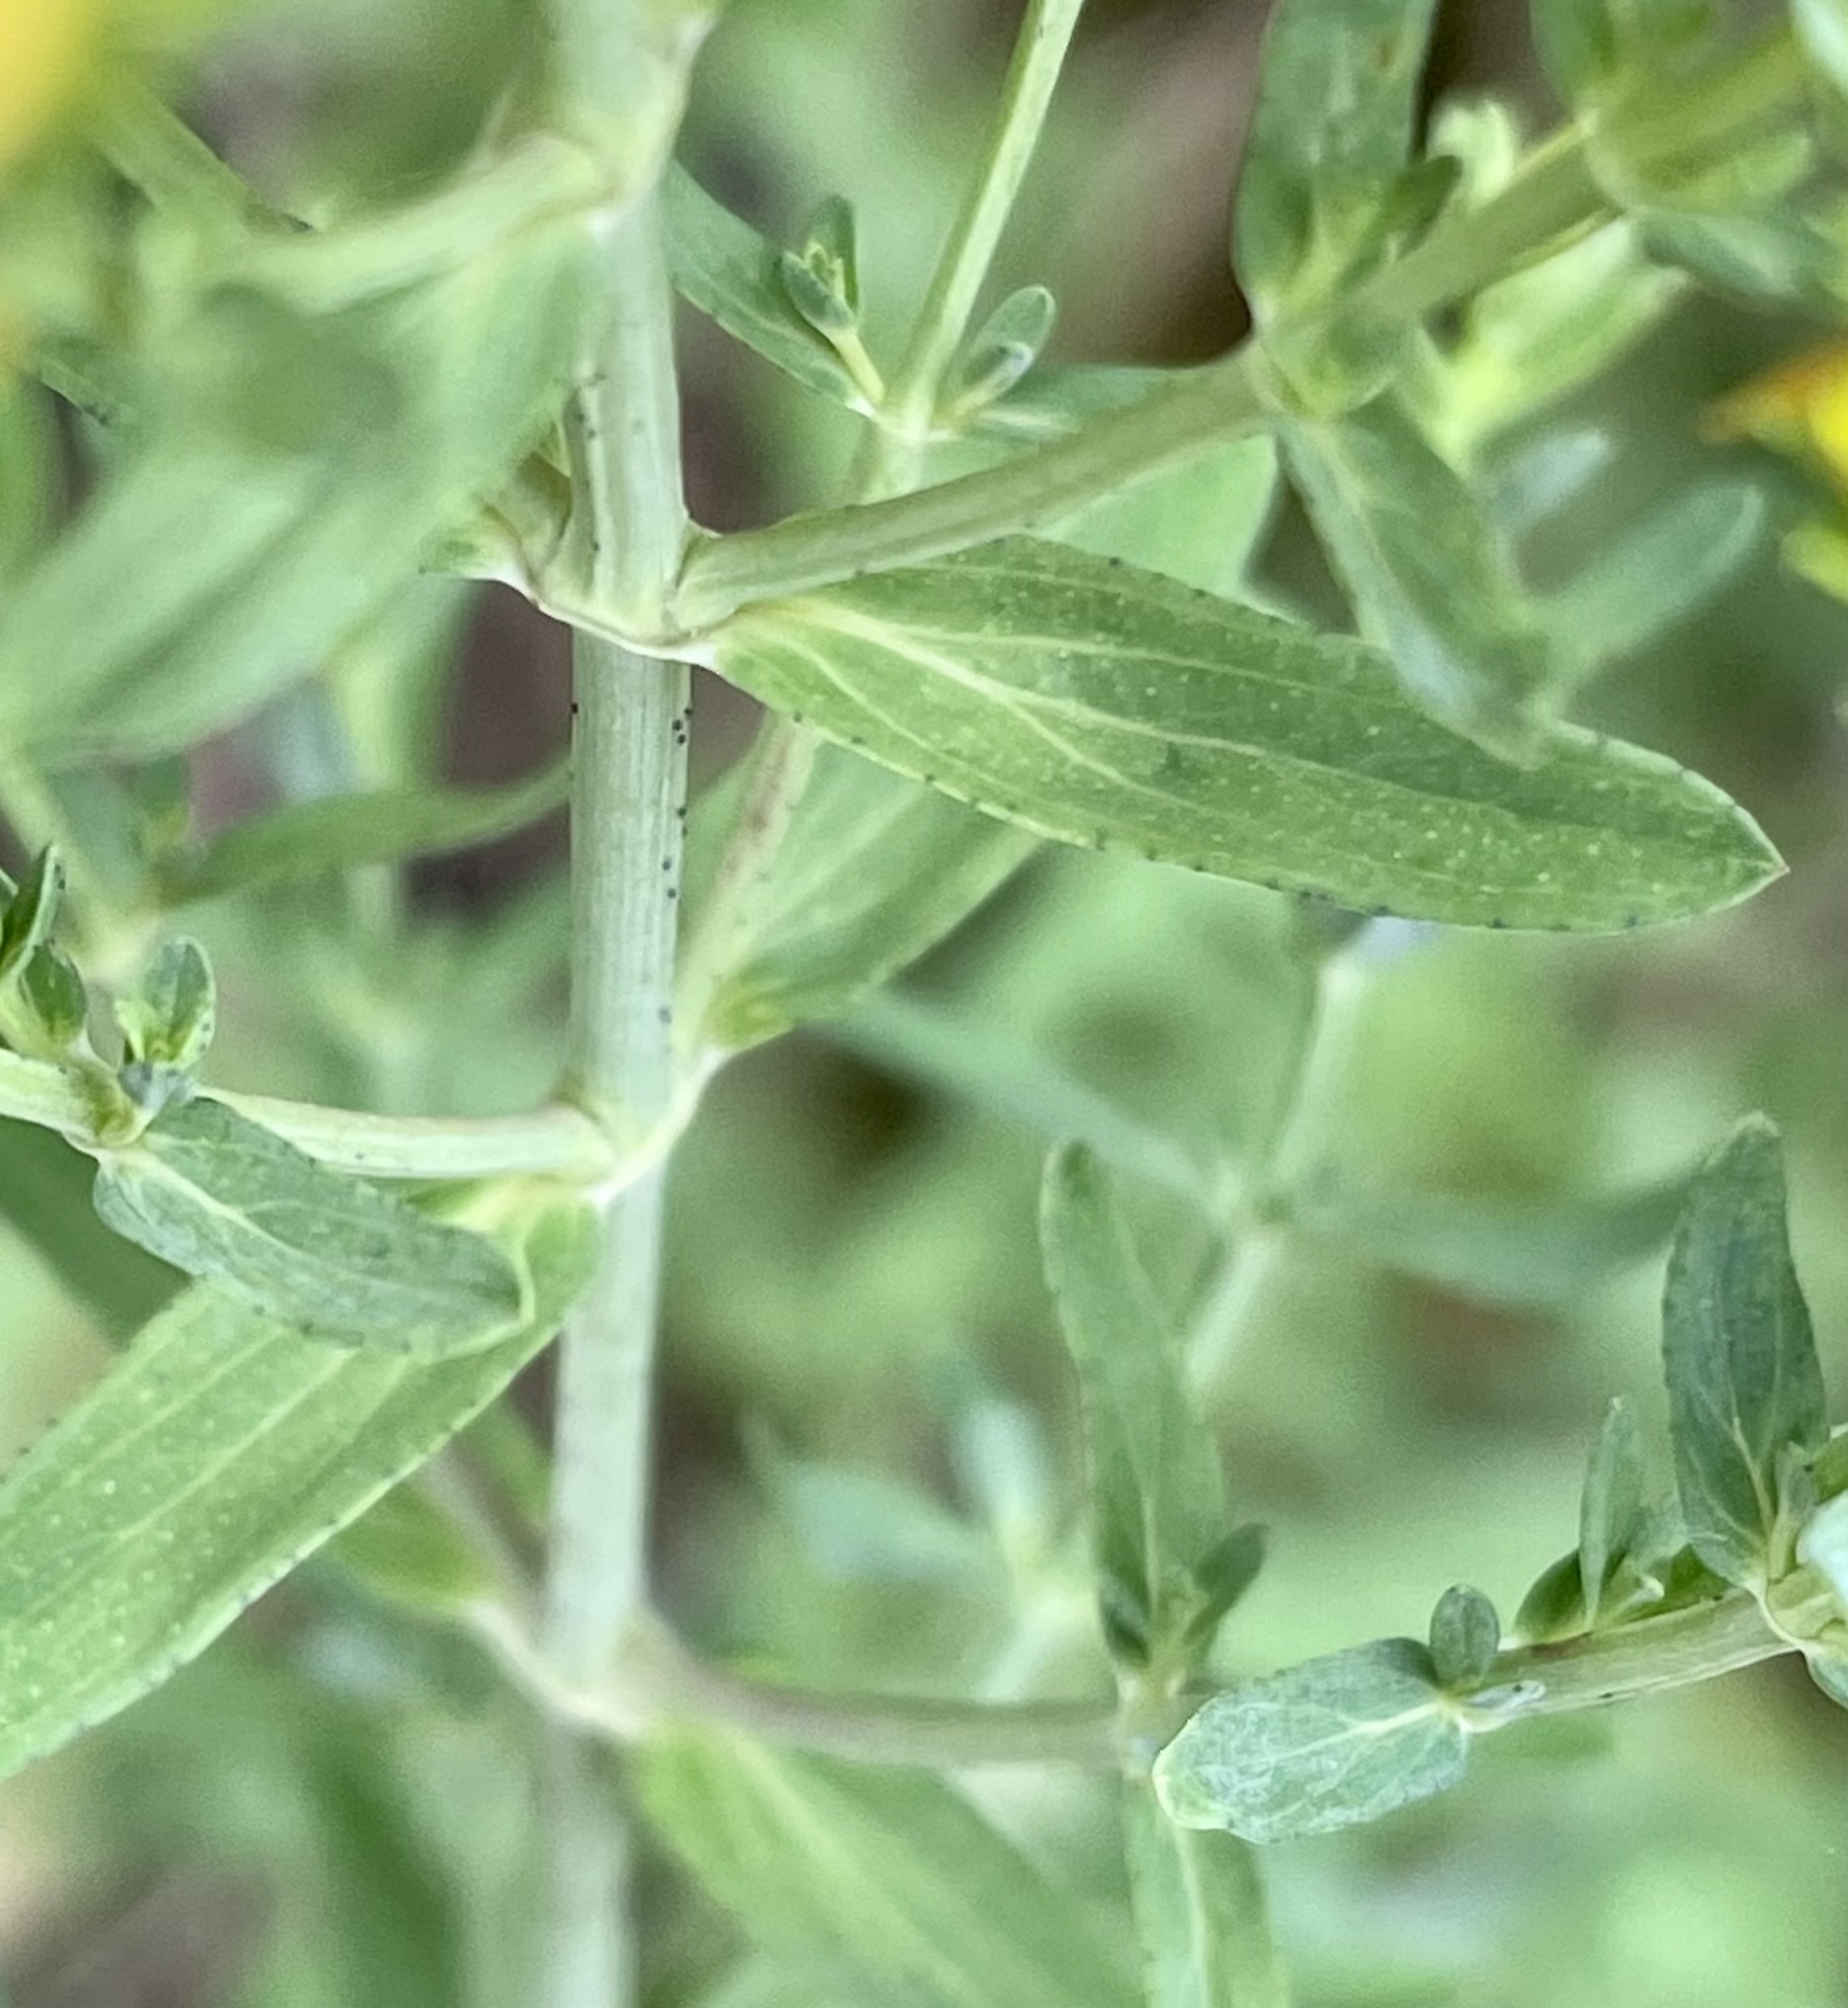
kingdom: Plantae
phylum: Tracheophyta
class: Magnoliopsida
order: Malpighiales
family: Hypericaceae
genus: Hypericum
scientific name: Hypericum perforatum
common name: Common st. johnswort
